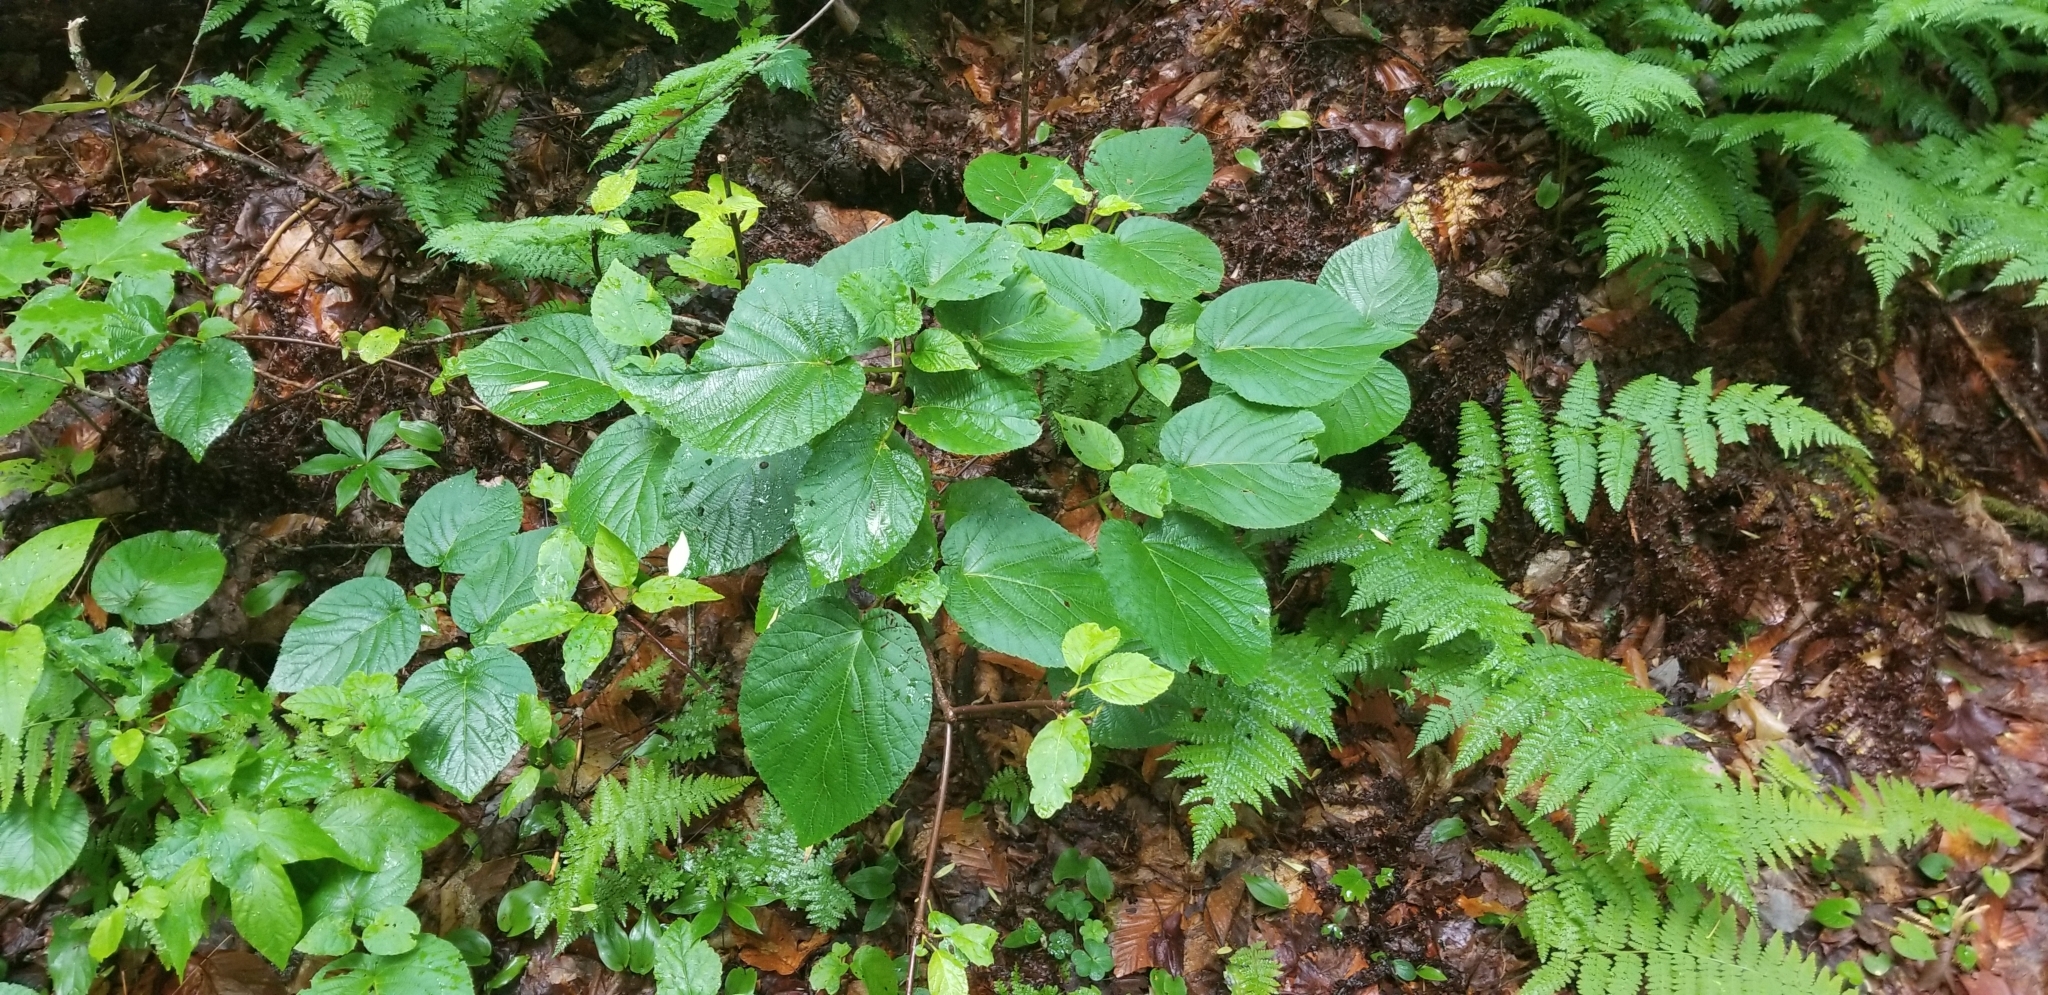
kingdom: Plantae
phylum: Tracheophyta
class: Magnoliopsida
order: Dipsacales
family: Viburnaceae
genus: Viburnum
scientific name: Viburnum lantanoides
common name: Hobblebush
